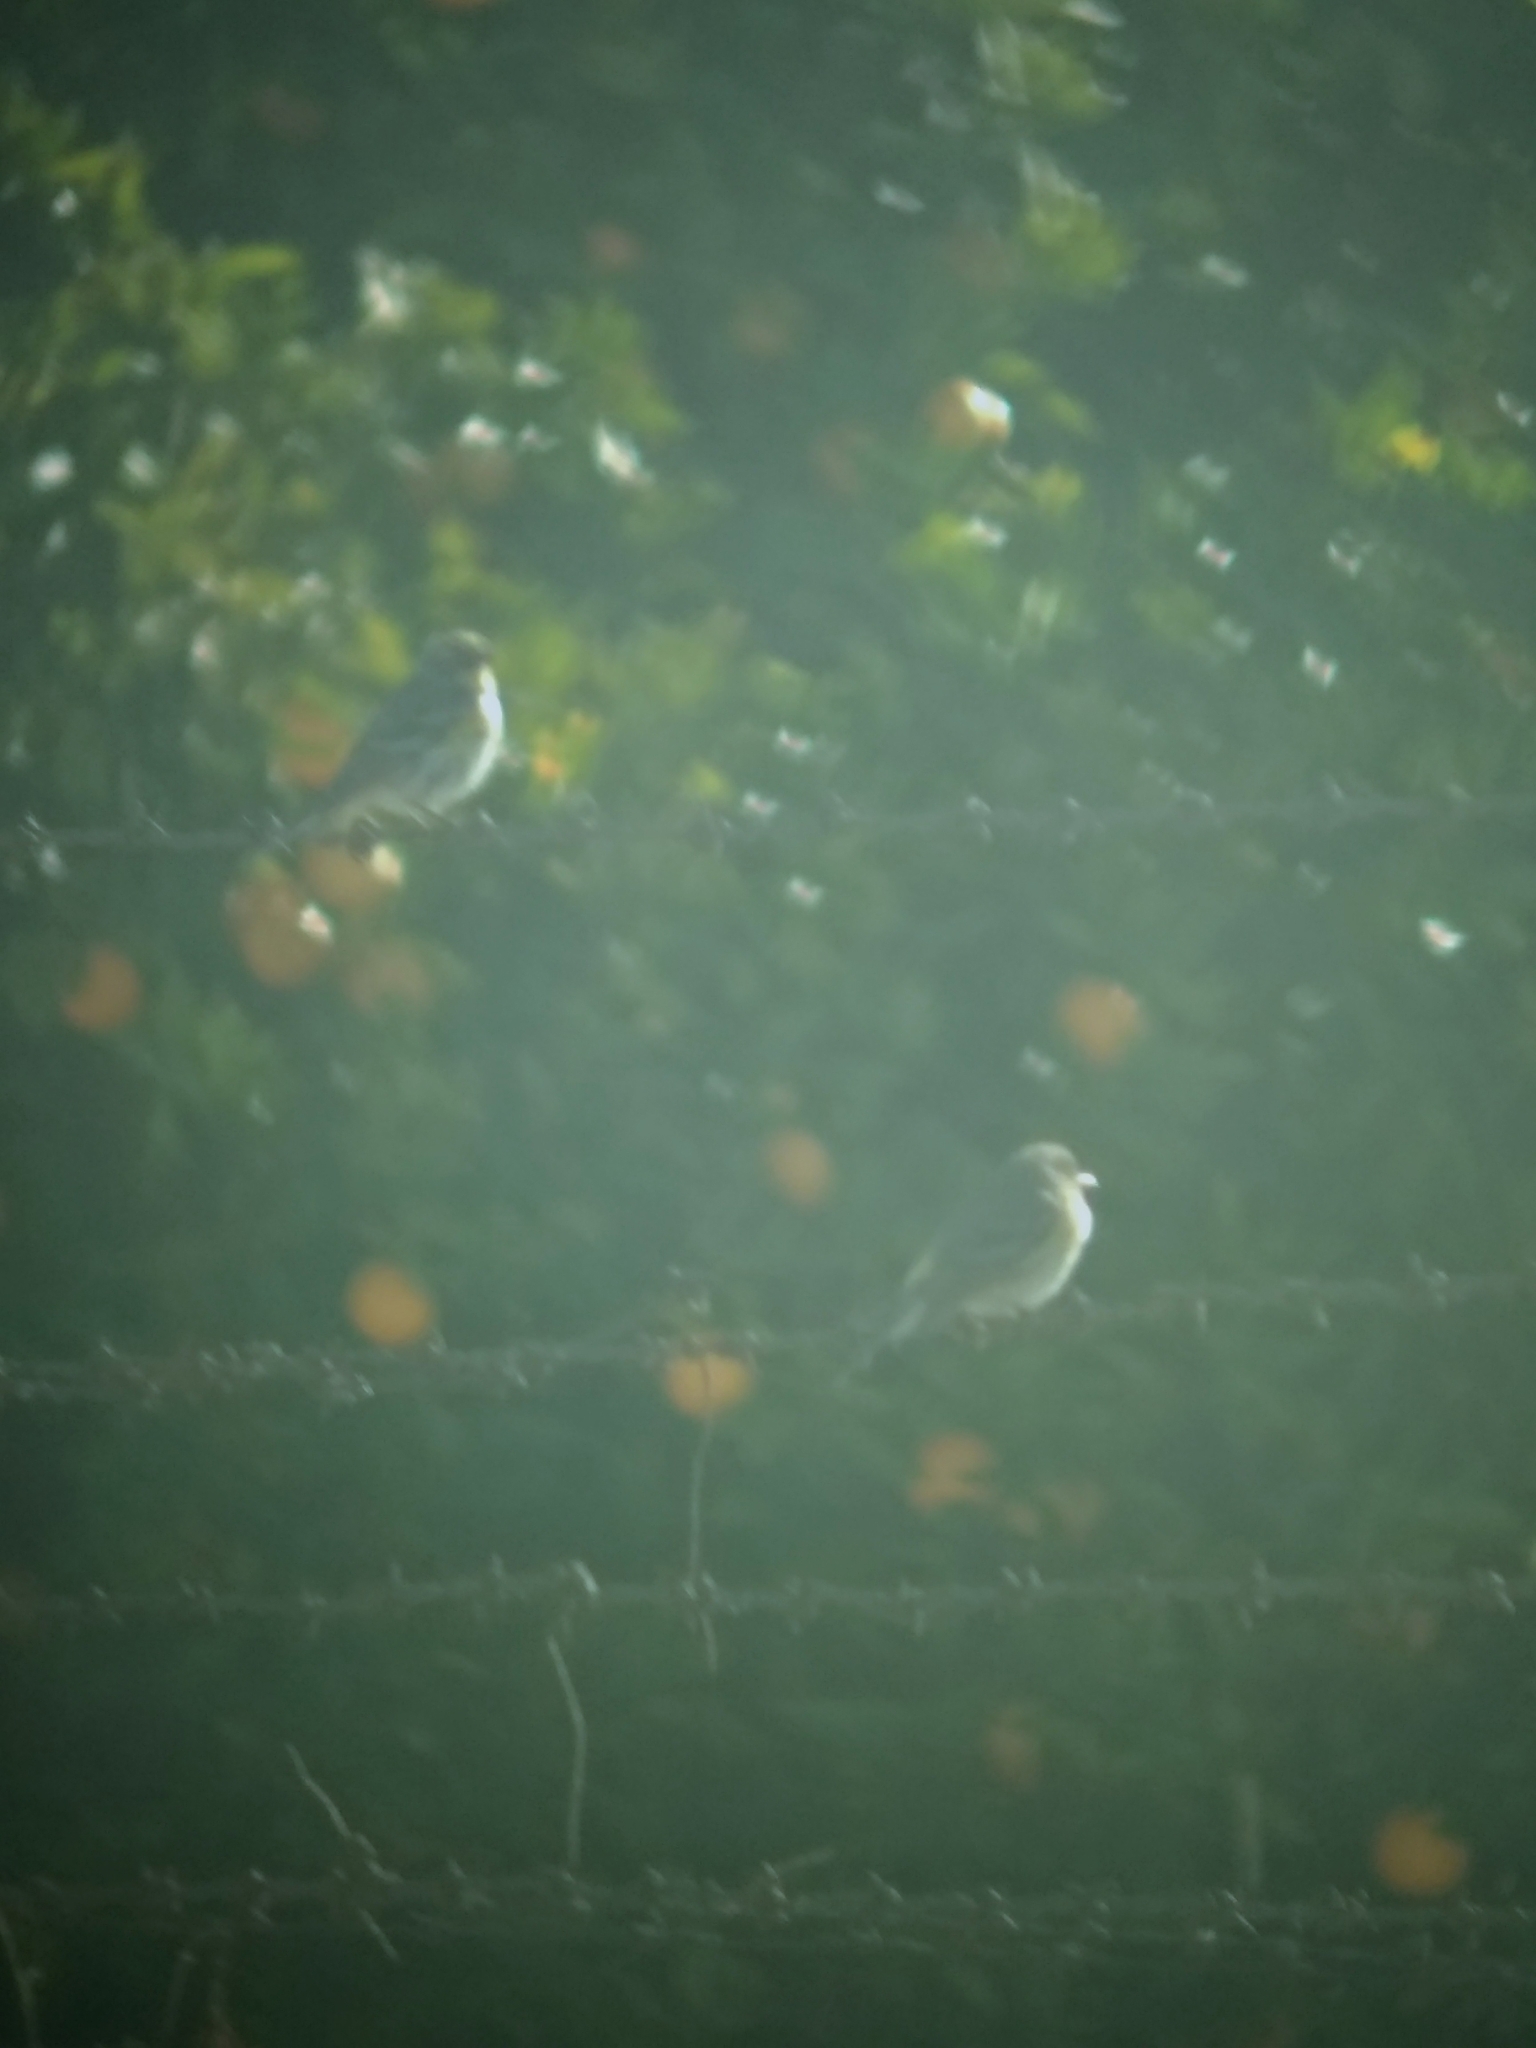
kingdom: Animalia
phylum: Chordata
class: Aves
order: Passeriformes
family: Parulidae
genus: Setophaga
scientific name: Setophaga coronata
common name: Myrtle warbler
